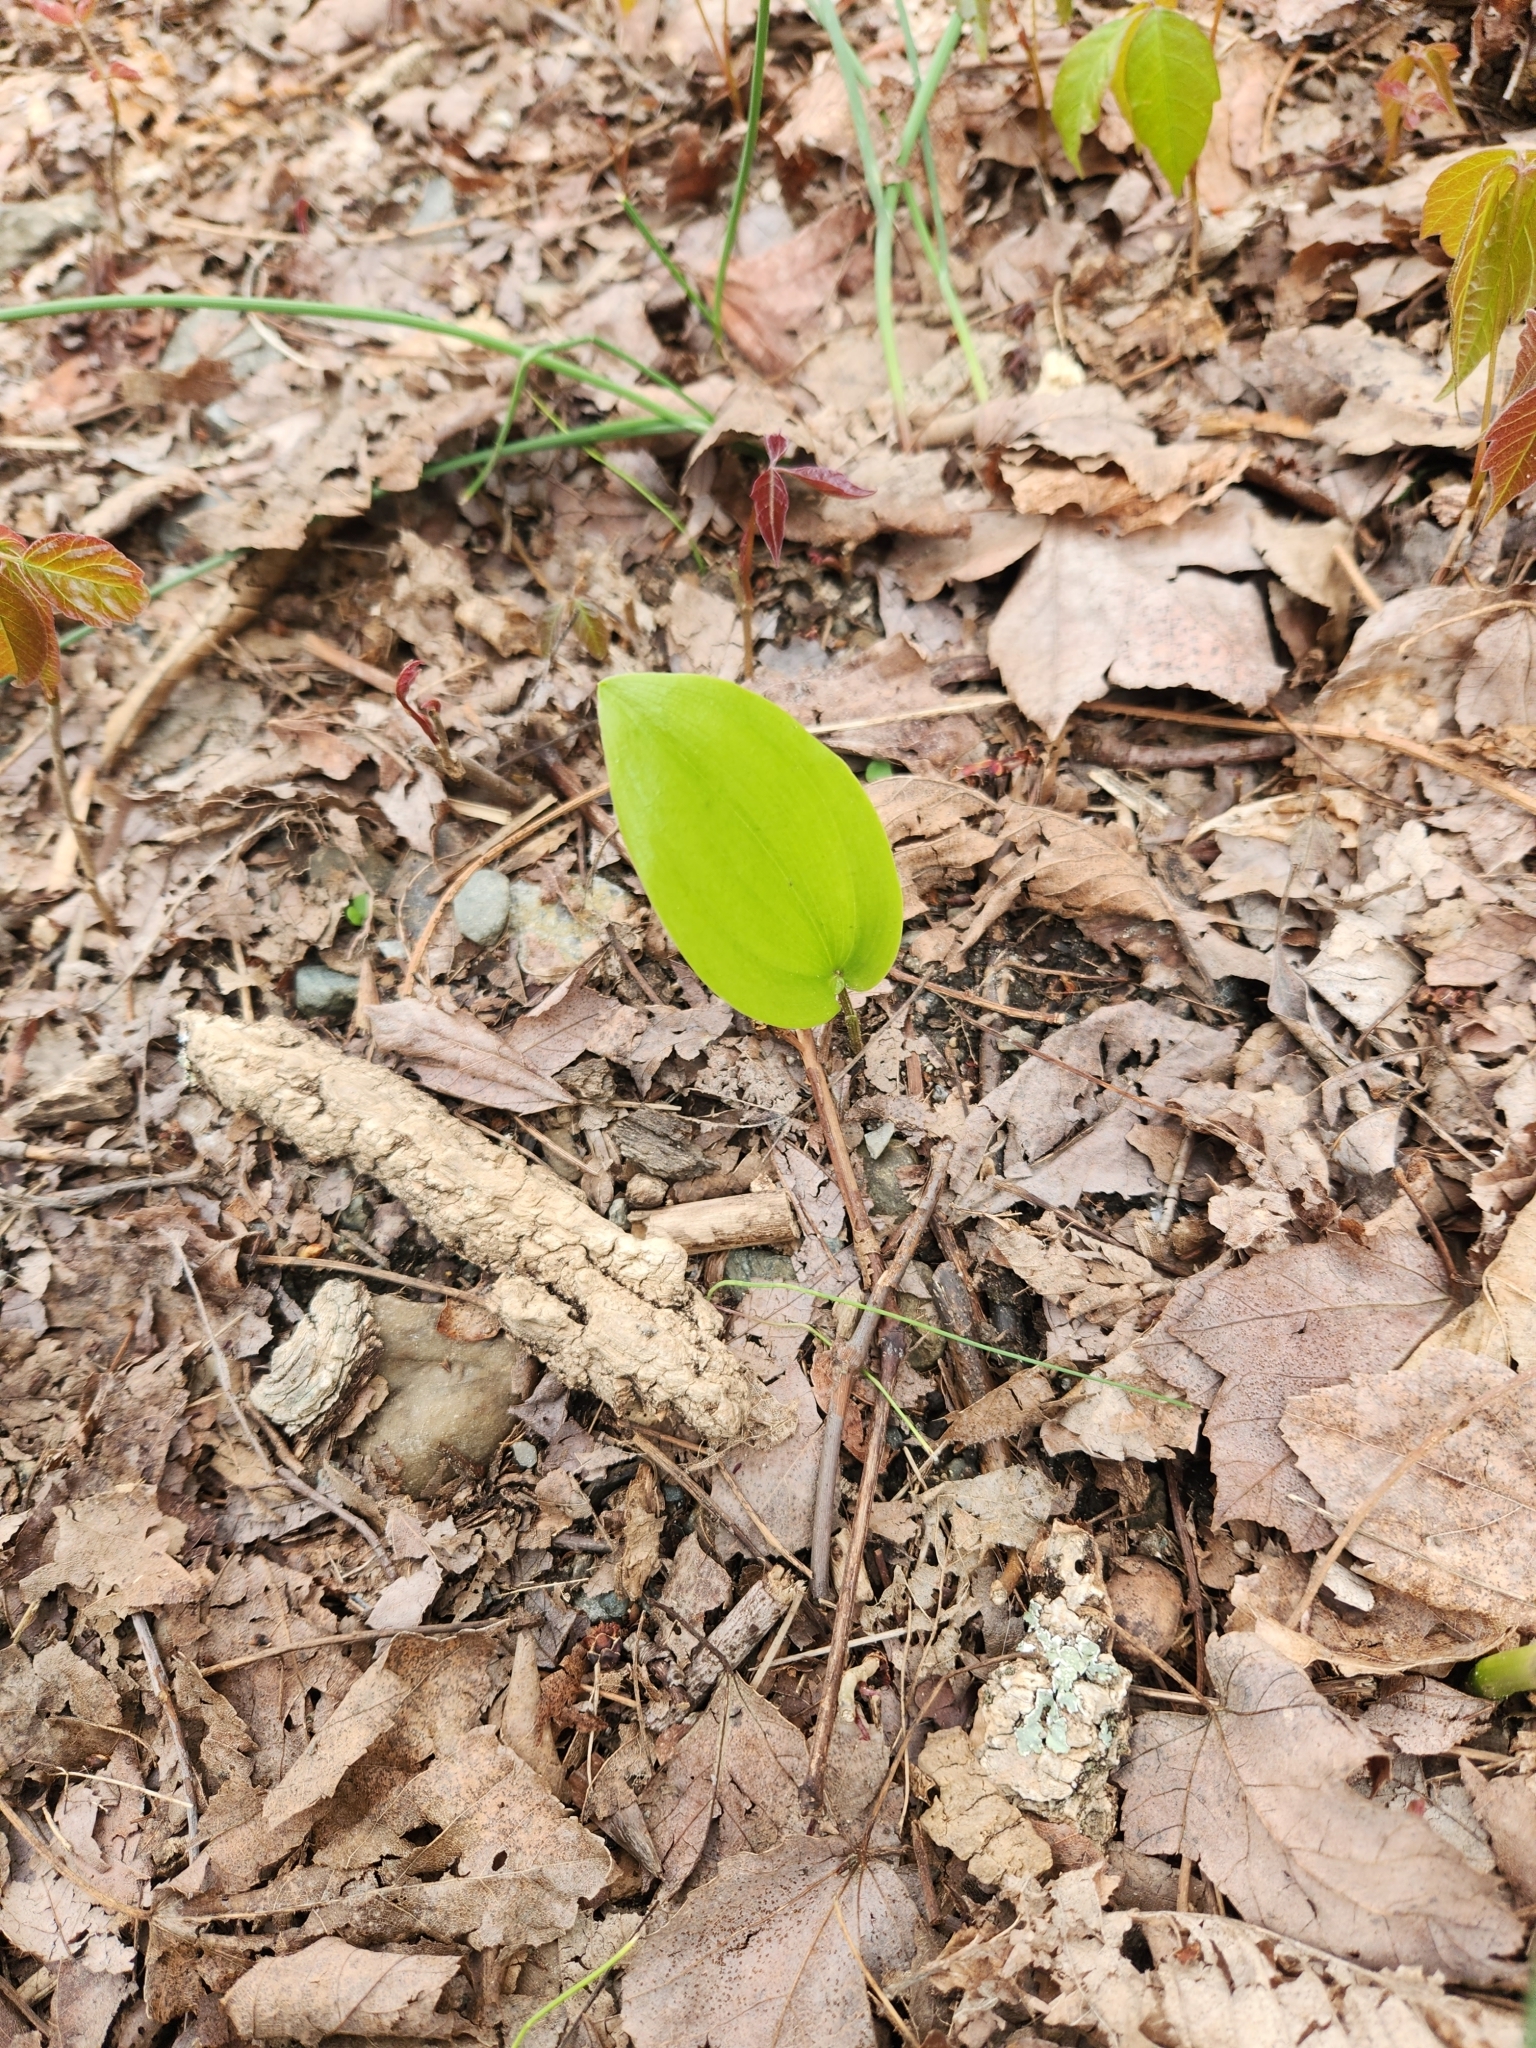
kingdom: Plantae
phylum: Tracheophyta
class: Liliopsida
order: Asparagales
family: Asparagaceae
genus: Maianthemum
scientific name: Maianthemum canadense
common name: False lily-of-the-valley
